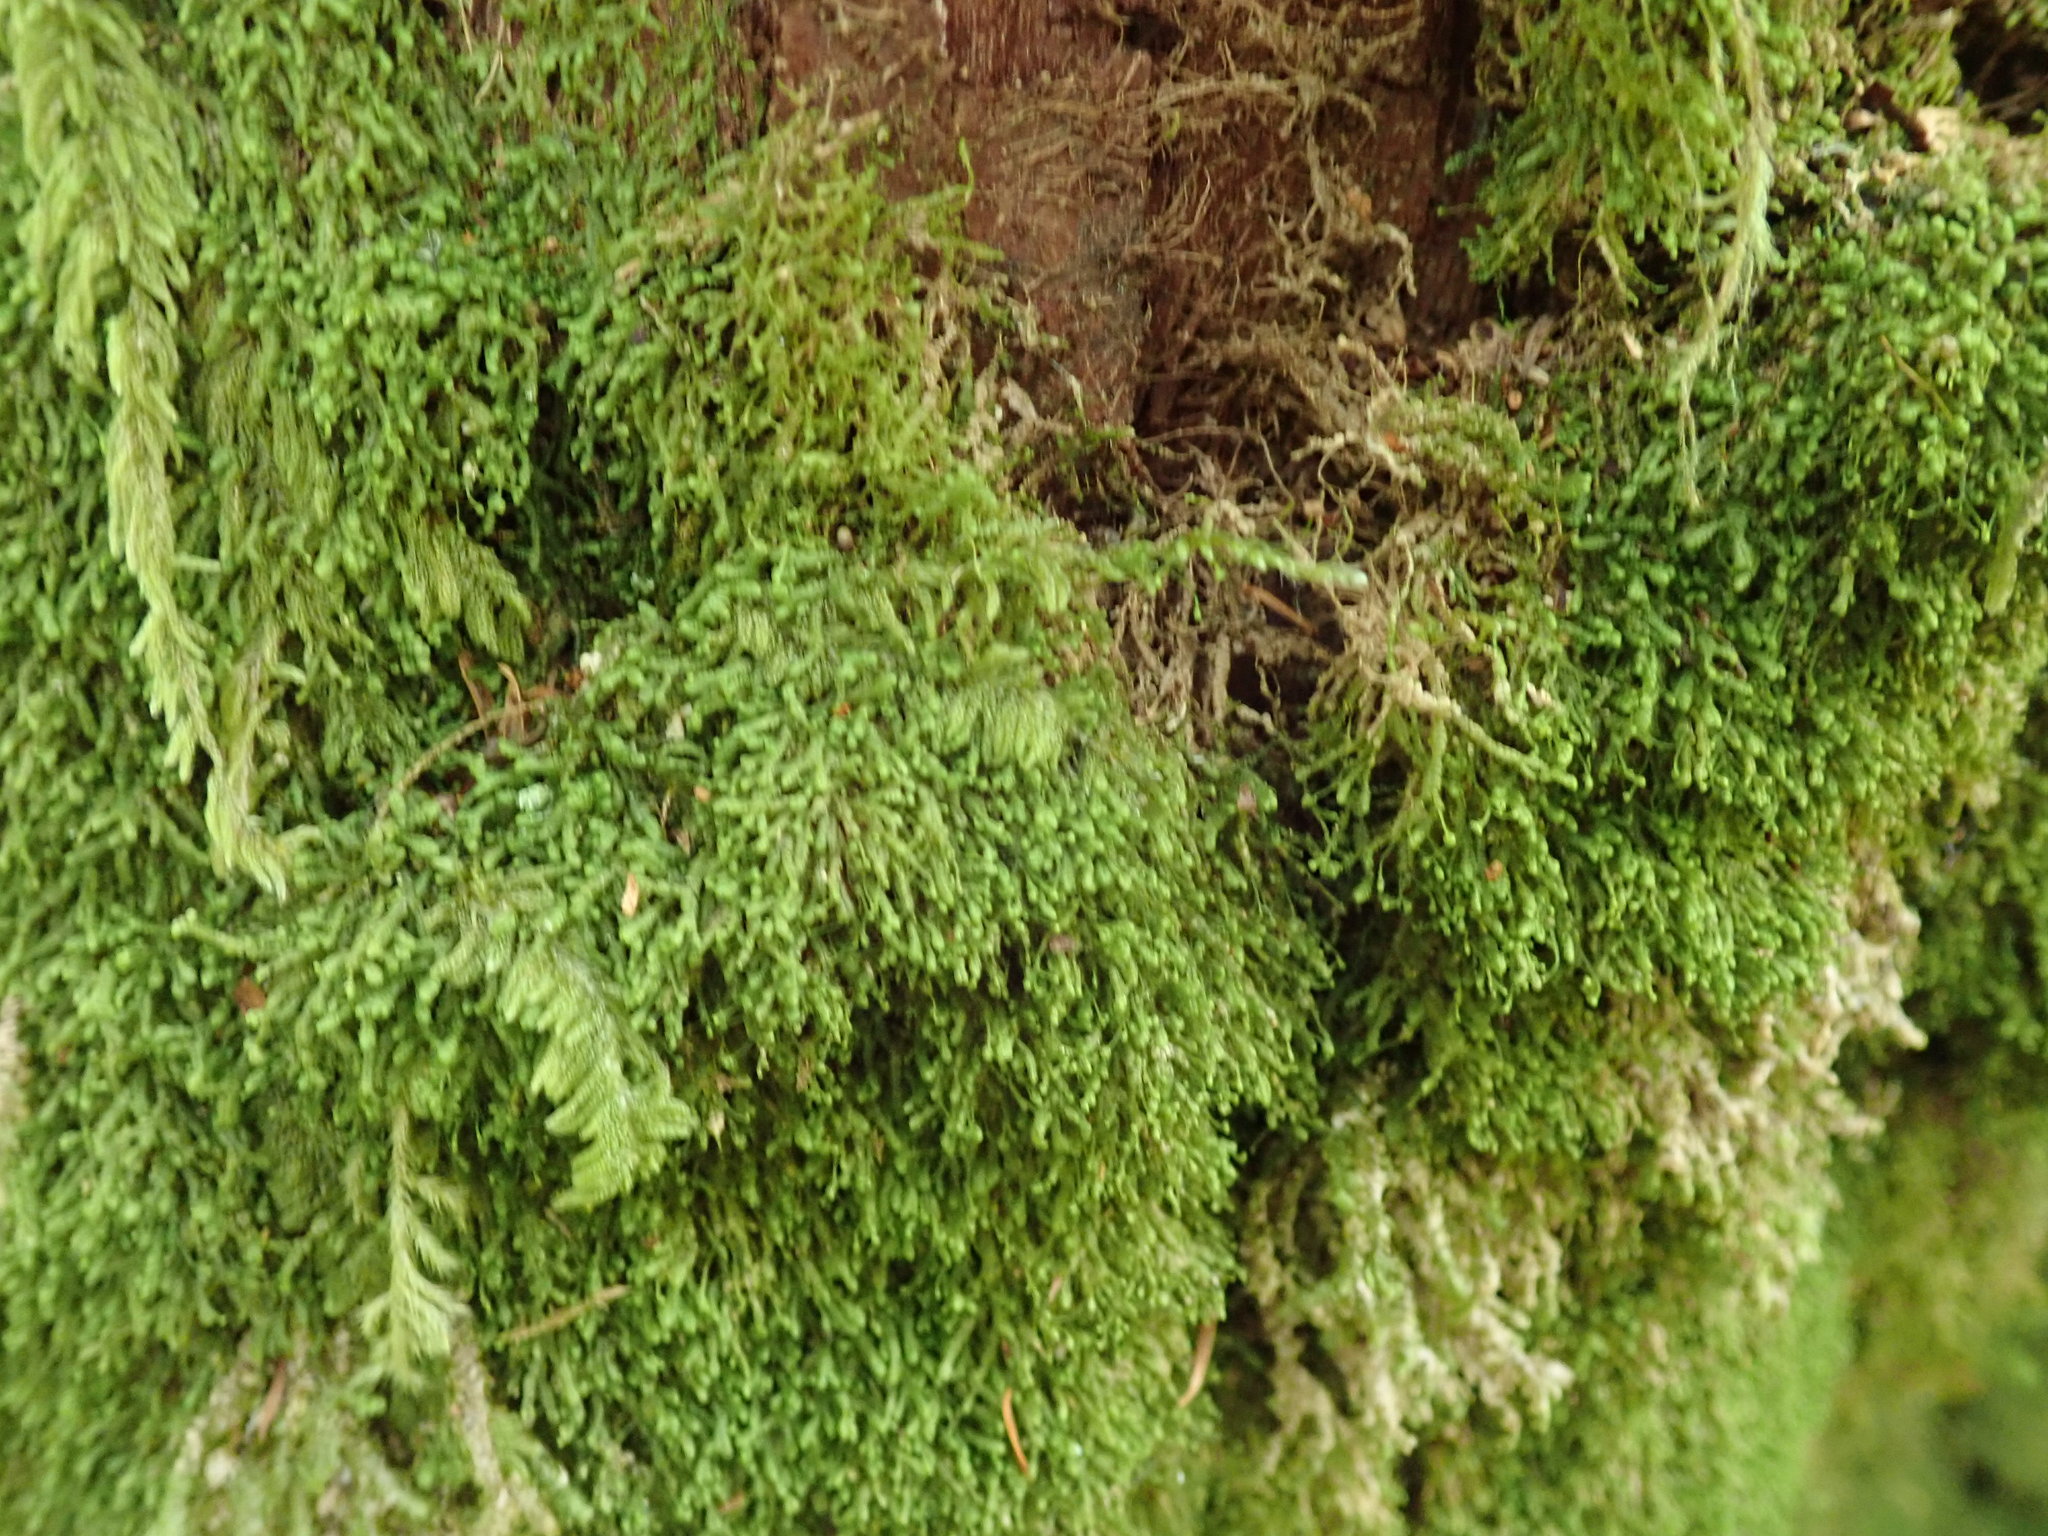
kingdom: Plantae
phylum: Marchantiophyta
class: Jungermanniopsida
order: Jungermanniales
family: Lepidoziaceae
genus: Bazzania
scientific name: Bazzania denudata
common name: Naked whipwort
